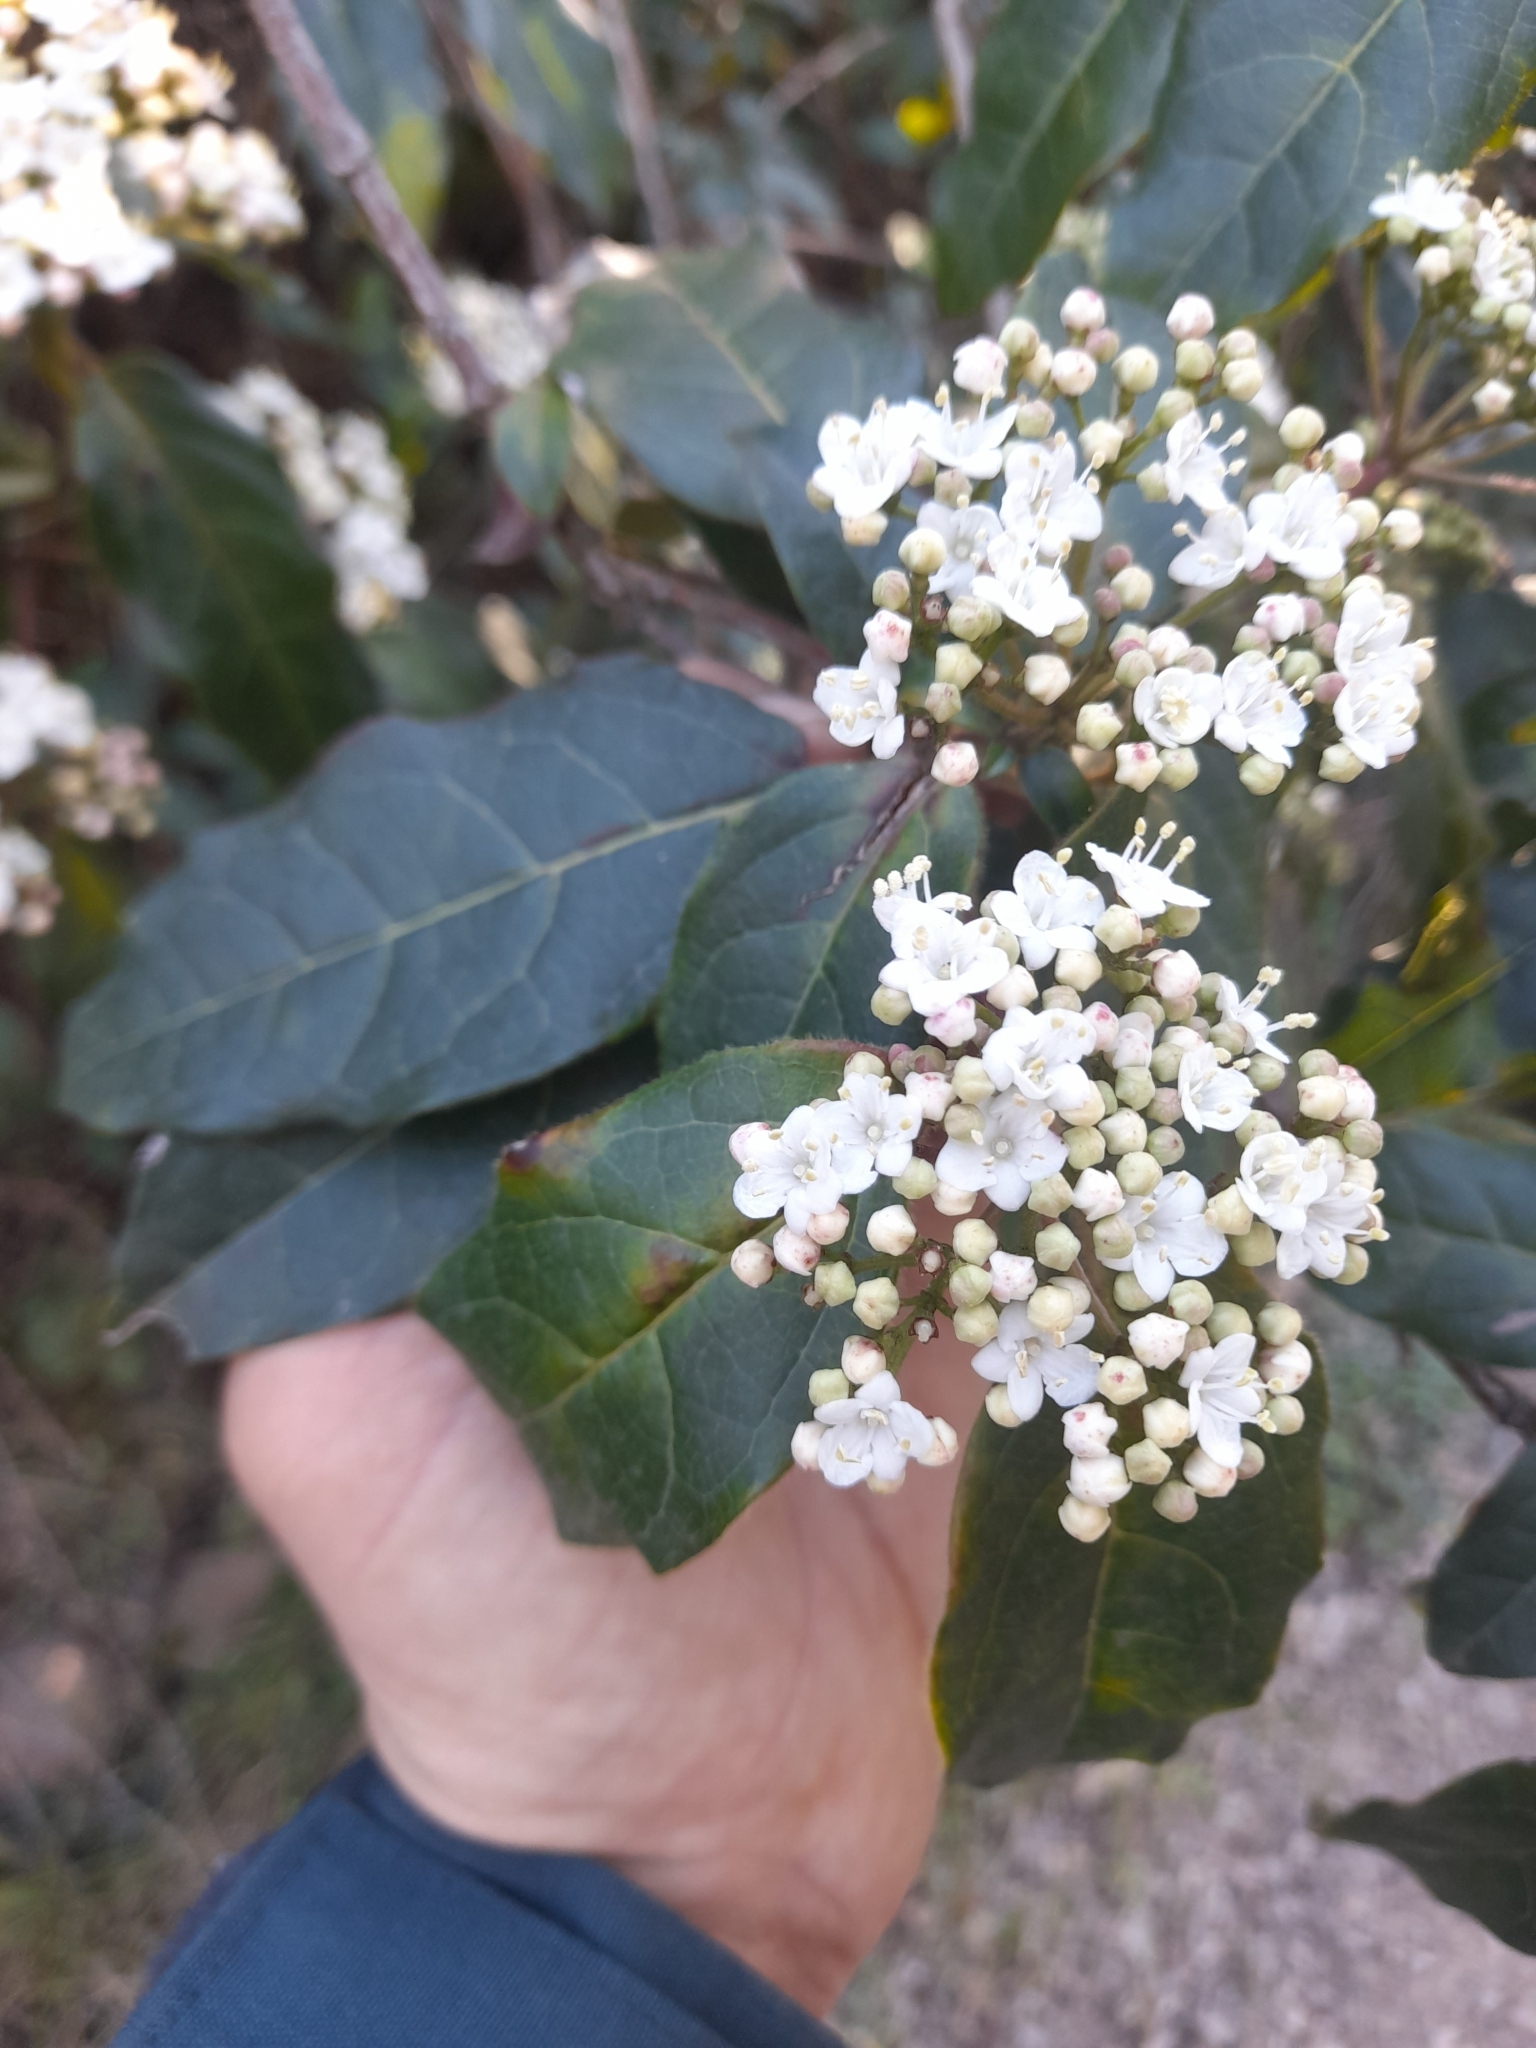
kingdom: Plantae
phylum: Tracheophyta
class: Magnoliopsida
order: Dipsacales
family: Viburnaceae
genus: Viburnum
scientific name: Viburnum tinus
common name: Laurustinus
